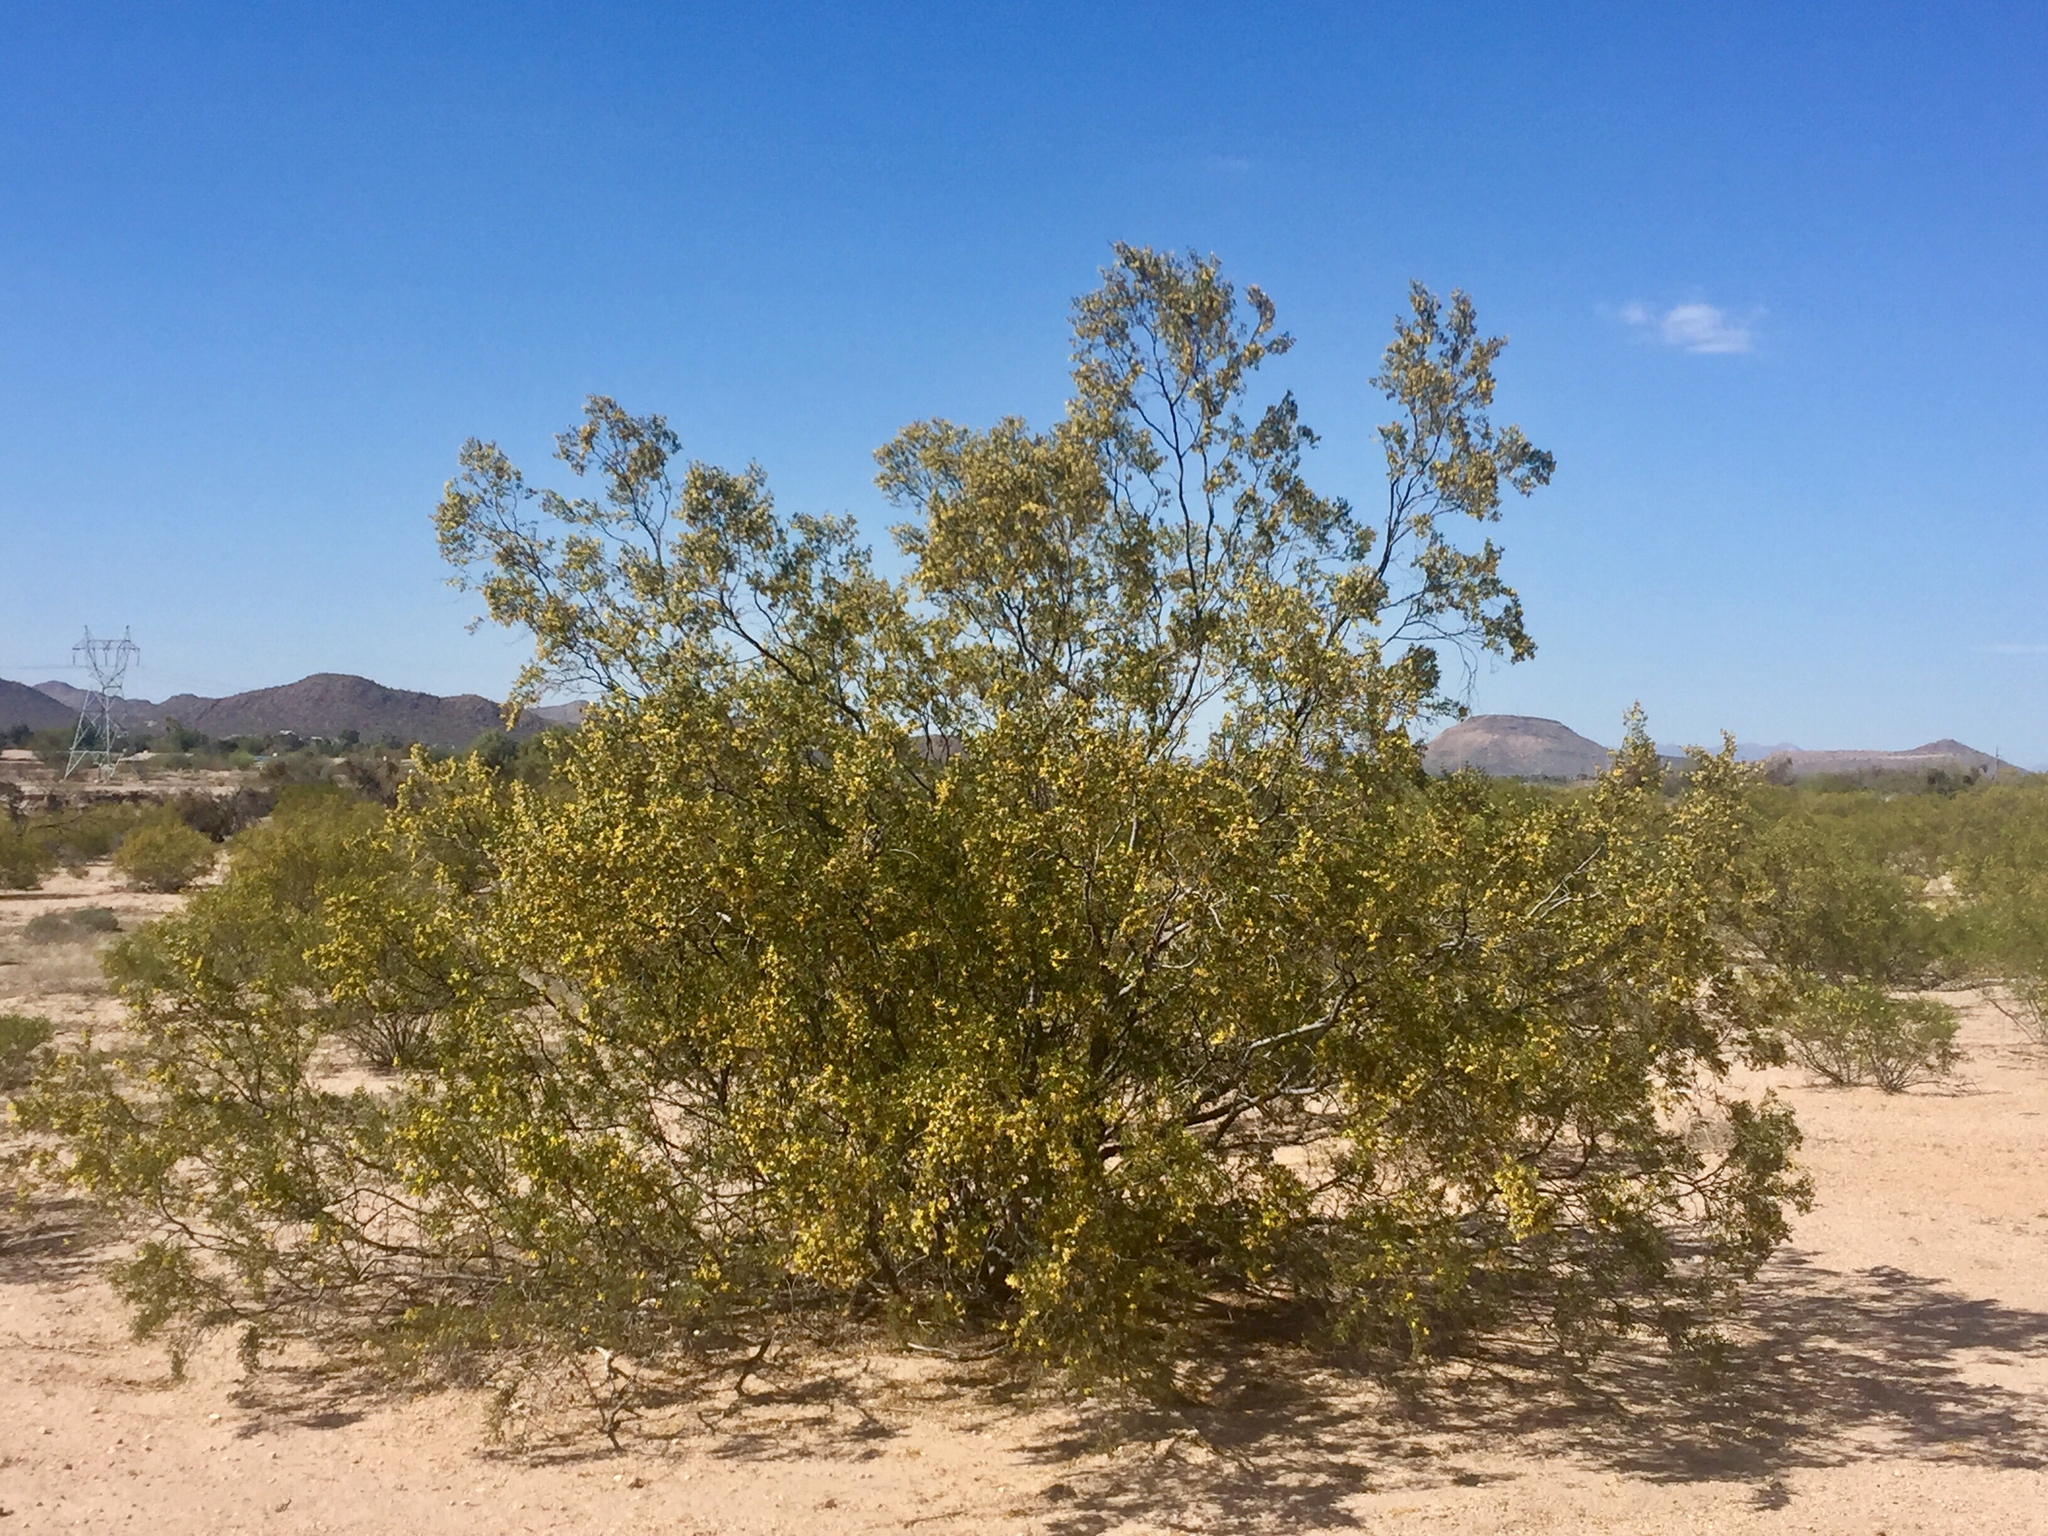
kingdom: Plantae
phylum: Tracheophyta
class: Magnoliopsida
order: Zygophyllales
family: Zygophyllaceae
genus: Larrea
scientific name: Larrea tridentata
